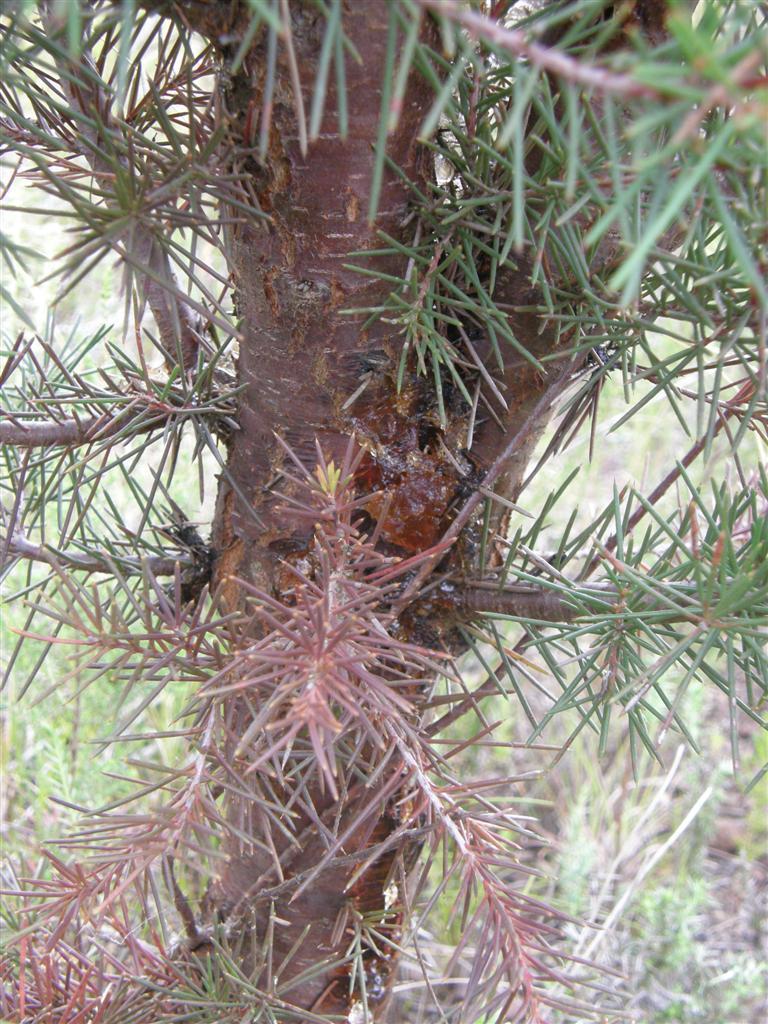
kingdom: Plantae
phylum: Tracheophyta
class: Magnoliopsida
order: Proteales
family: Proteaceae
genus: Hakea
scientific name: Hakea sericea
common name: Needle bush
